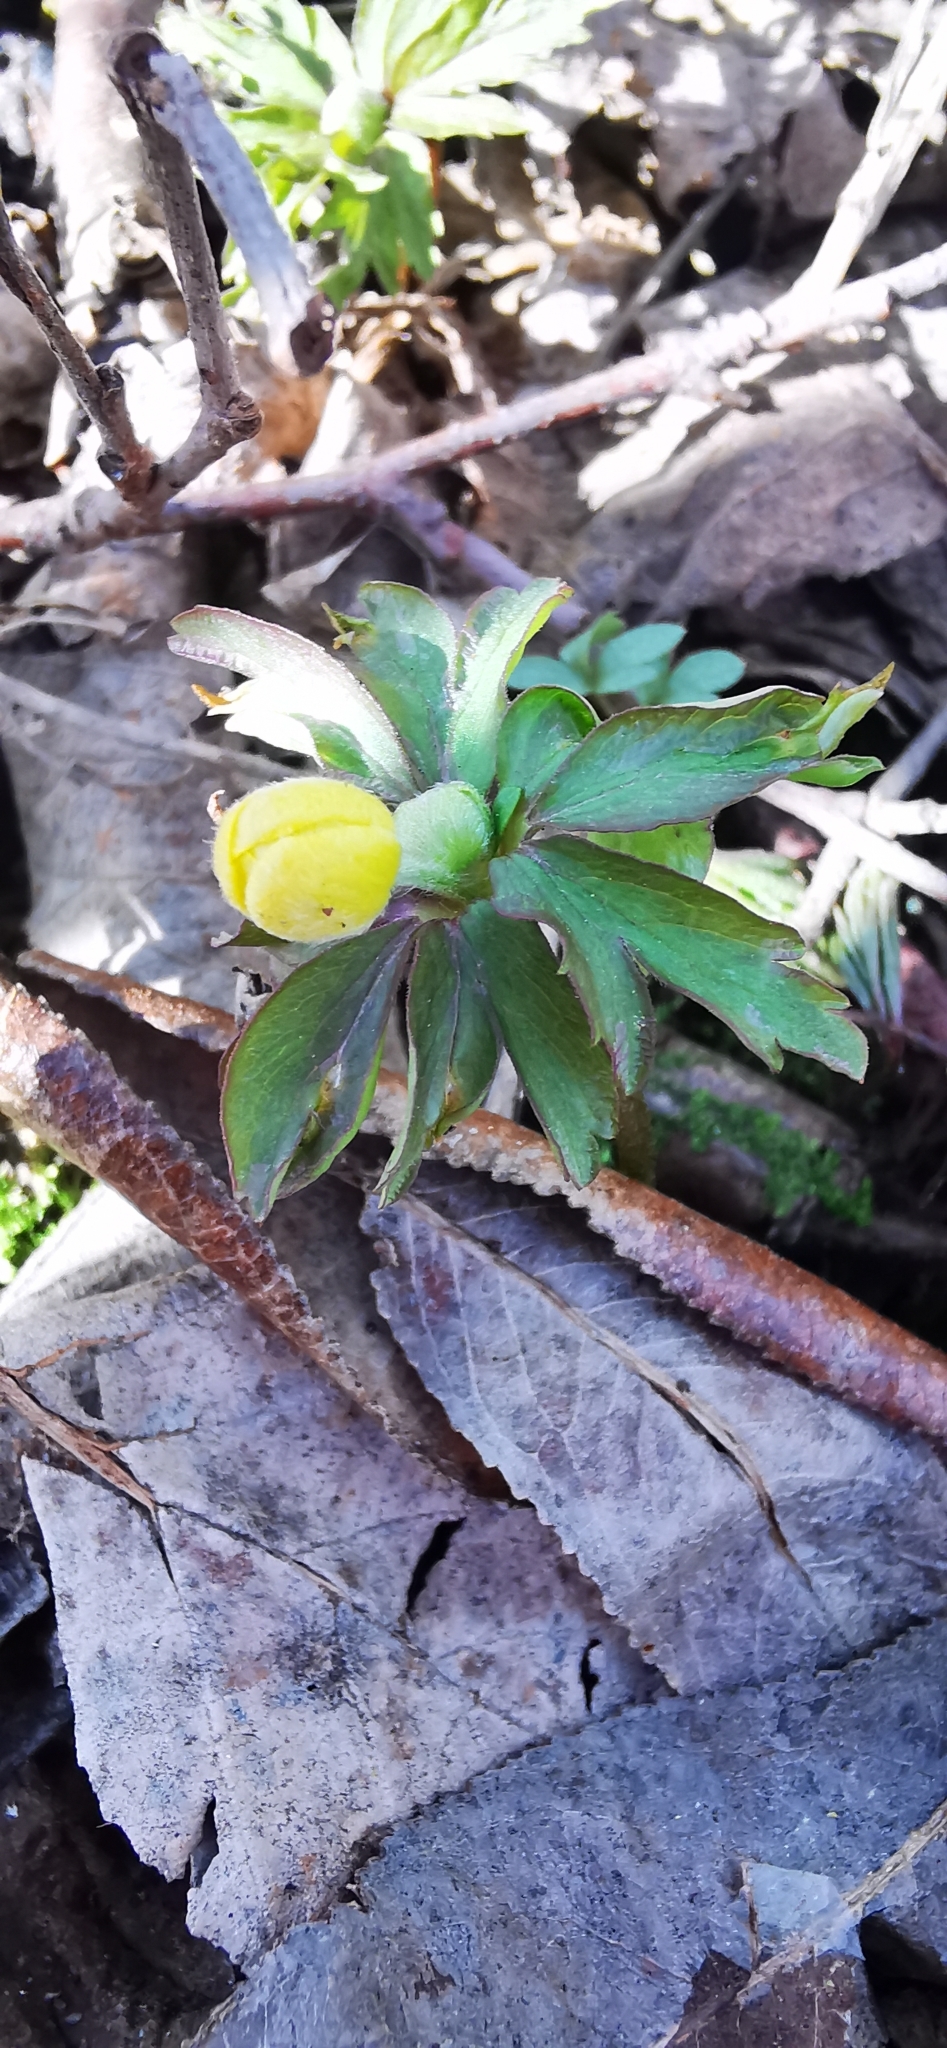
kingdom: Plantae
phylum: Tracheophyta
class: Magnoliopsida
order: Ranunculales
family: Ranunculaceae
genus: Anemone
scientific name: Anemone ranunculoides
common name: Yellow anemone
